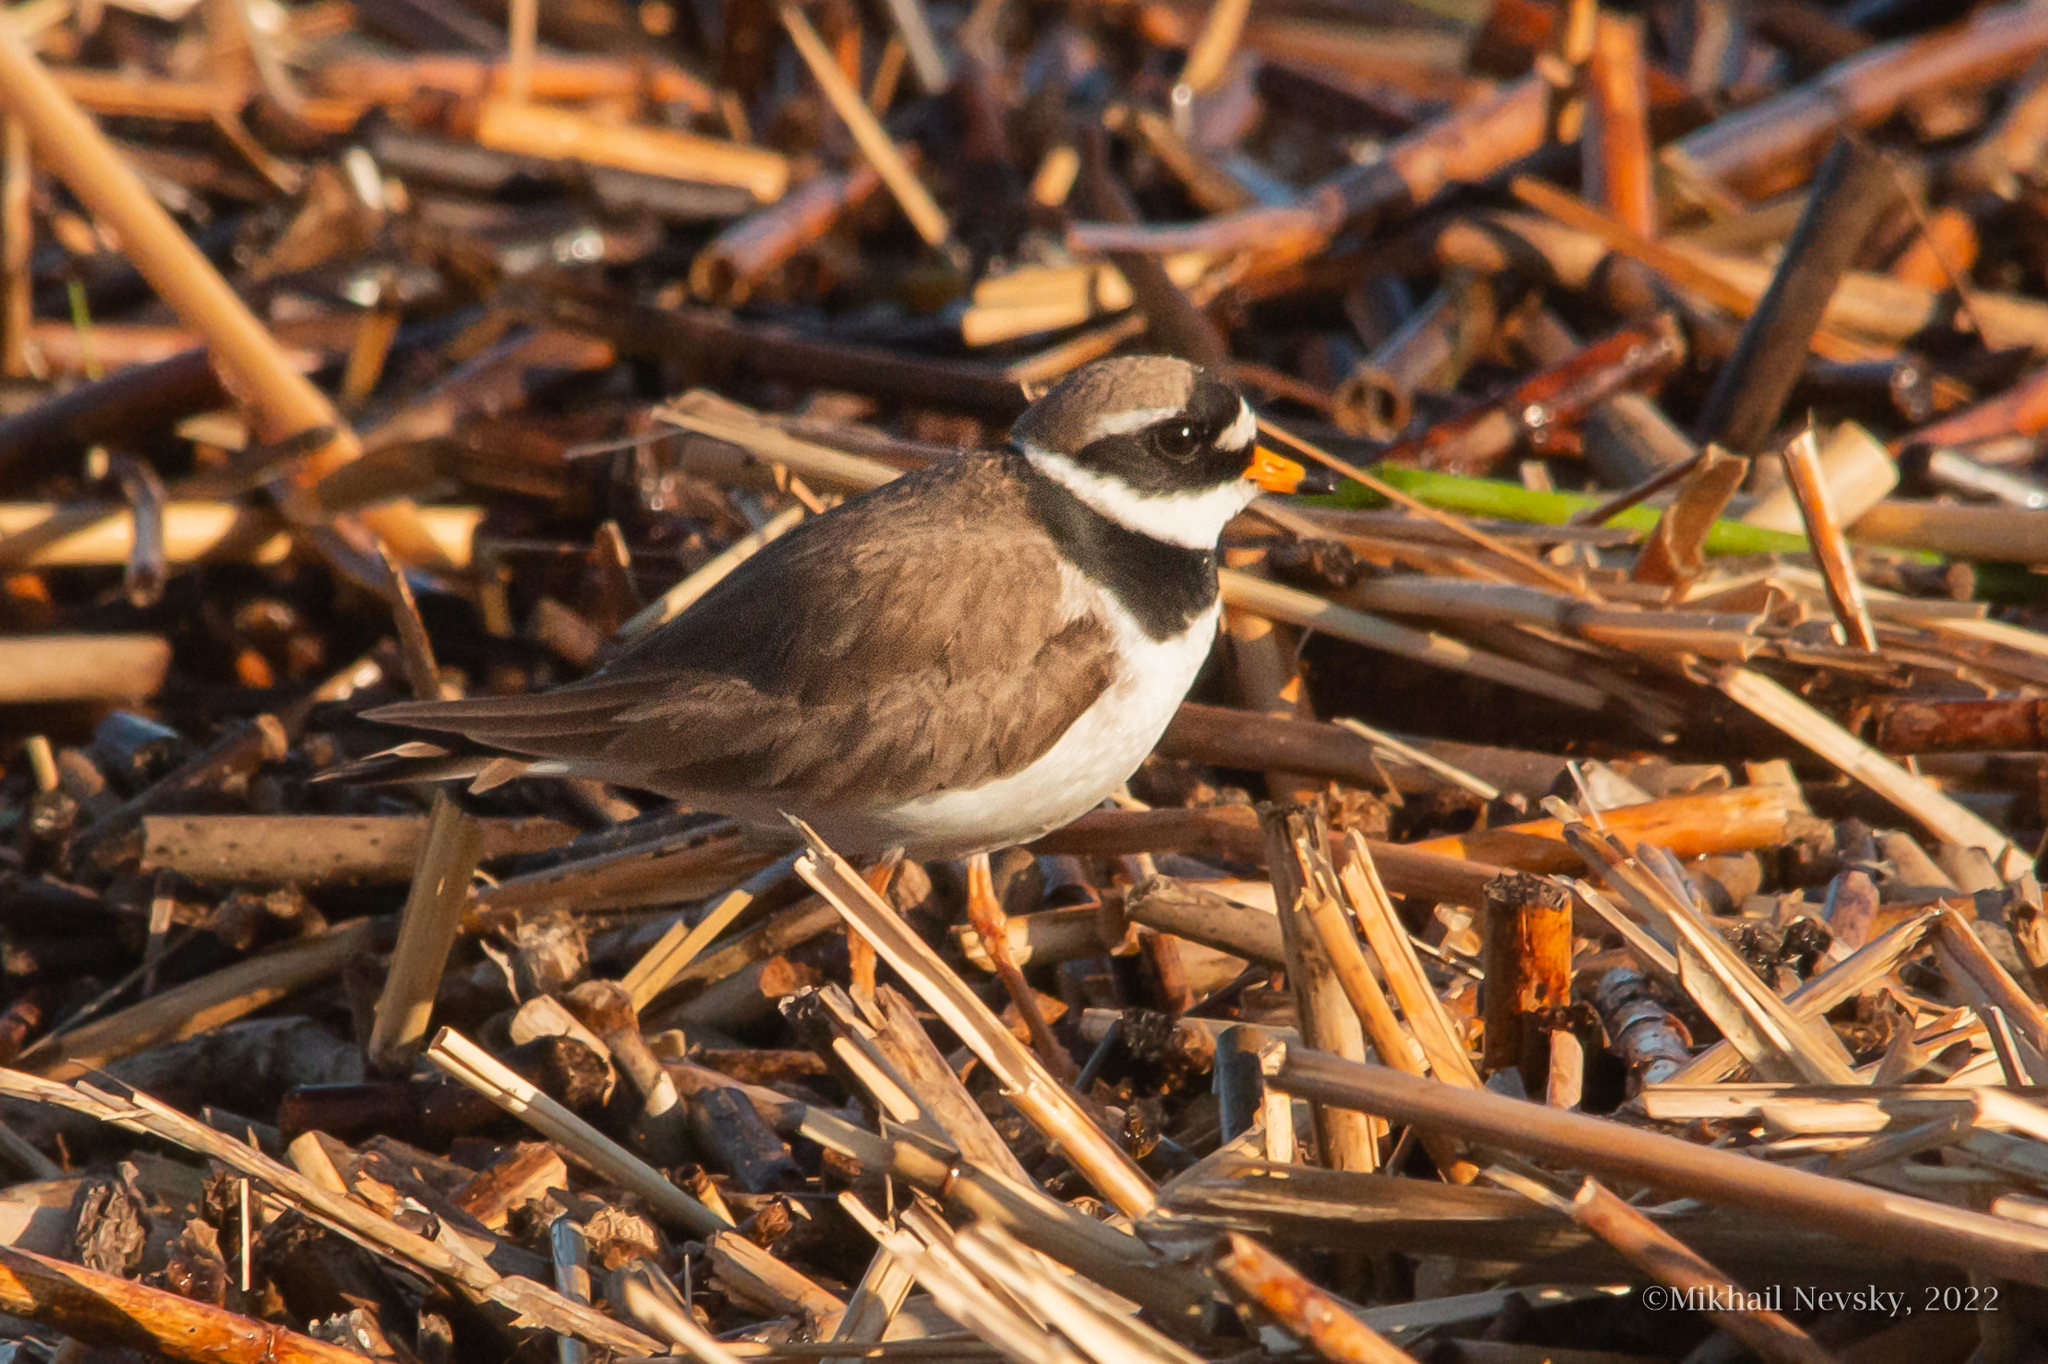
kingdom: Animalia
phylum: Chordata
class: Aves
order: Charadriiformes
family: Charadriidae
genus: Charadrius
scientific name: Charadrius hiaticula
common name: Common ringed plover
